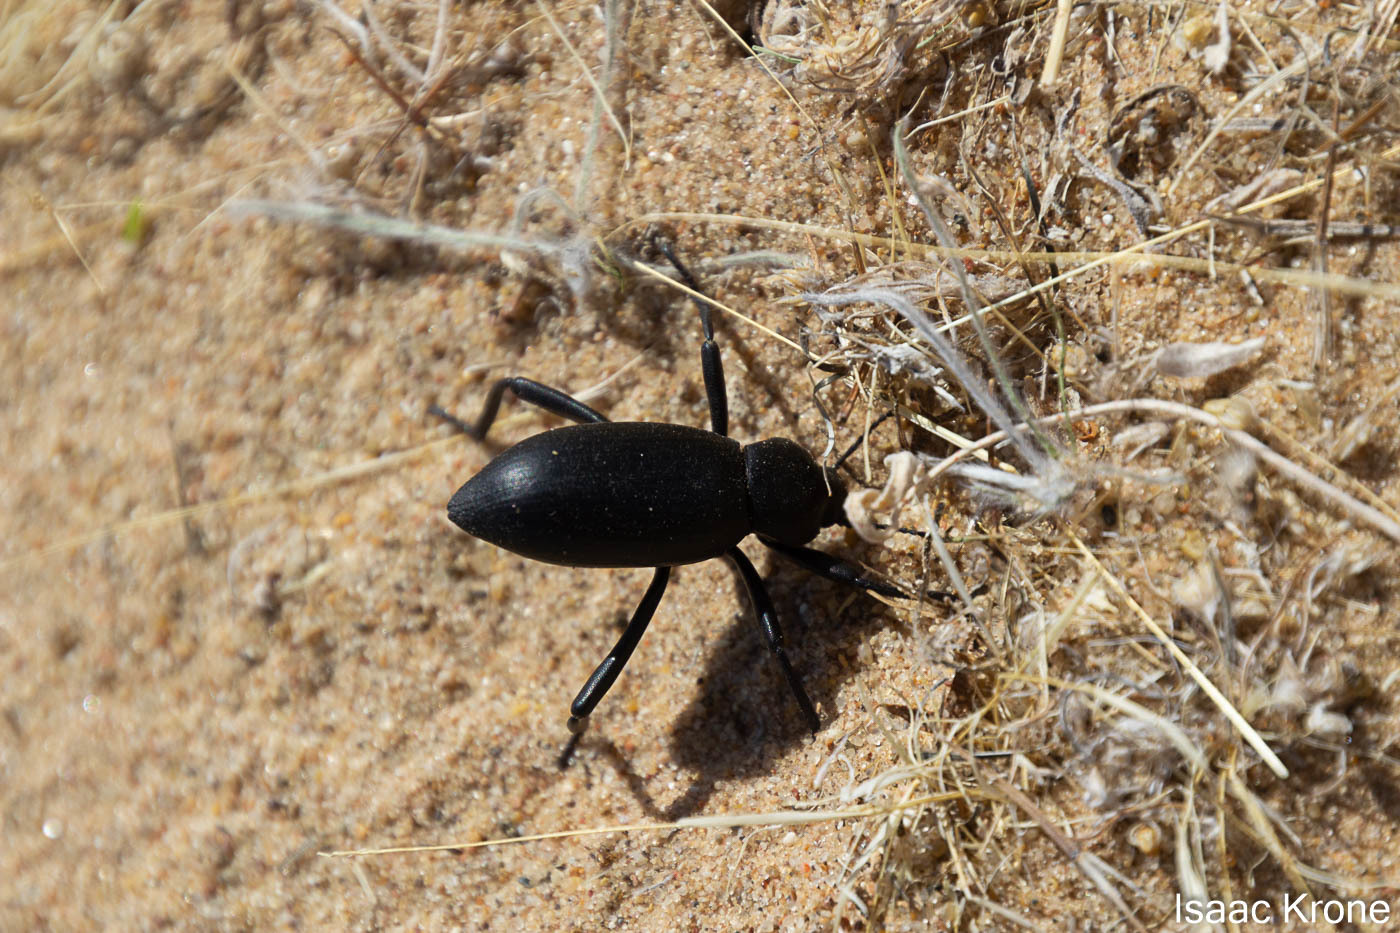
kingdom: Animalia
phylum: Arthropoda
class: Insecta
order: Coleoptera
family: Tenebrionidae
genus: Eleodes
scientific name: Eleodes armata
